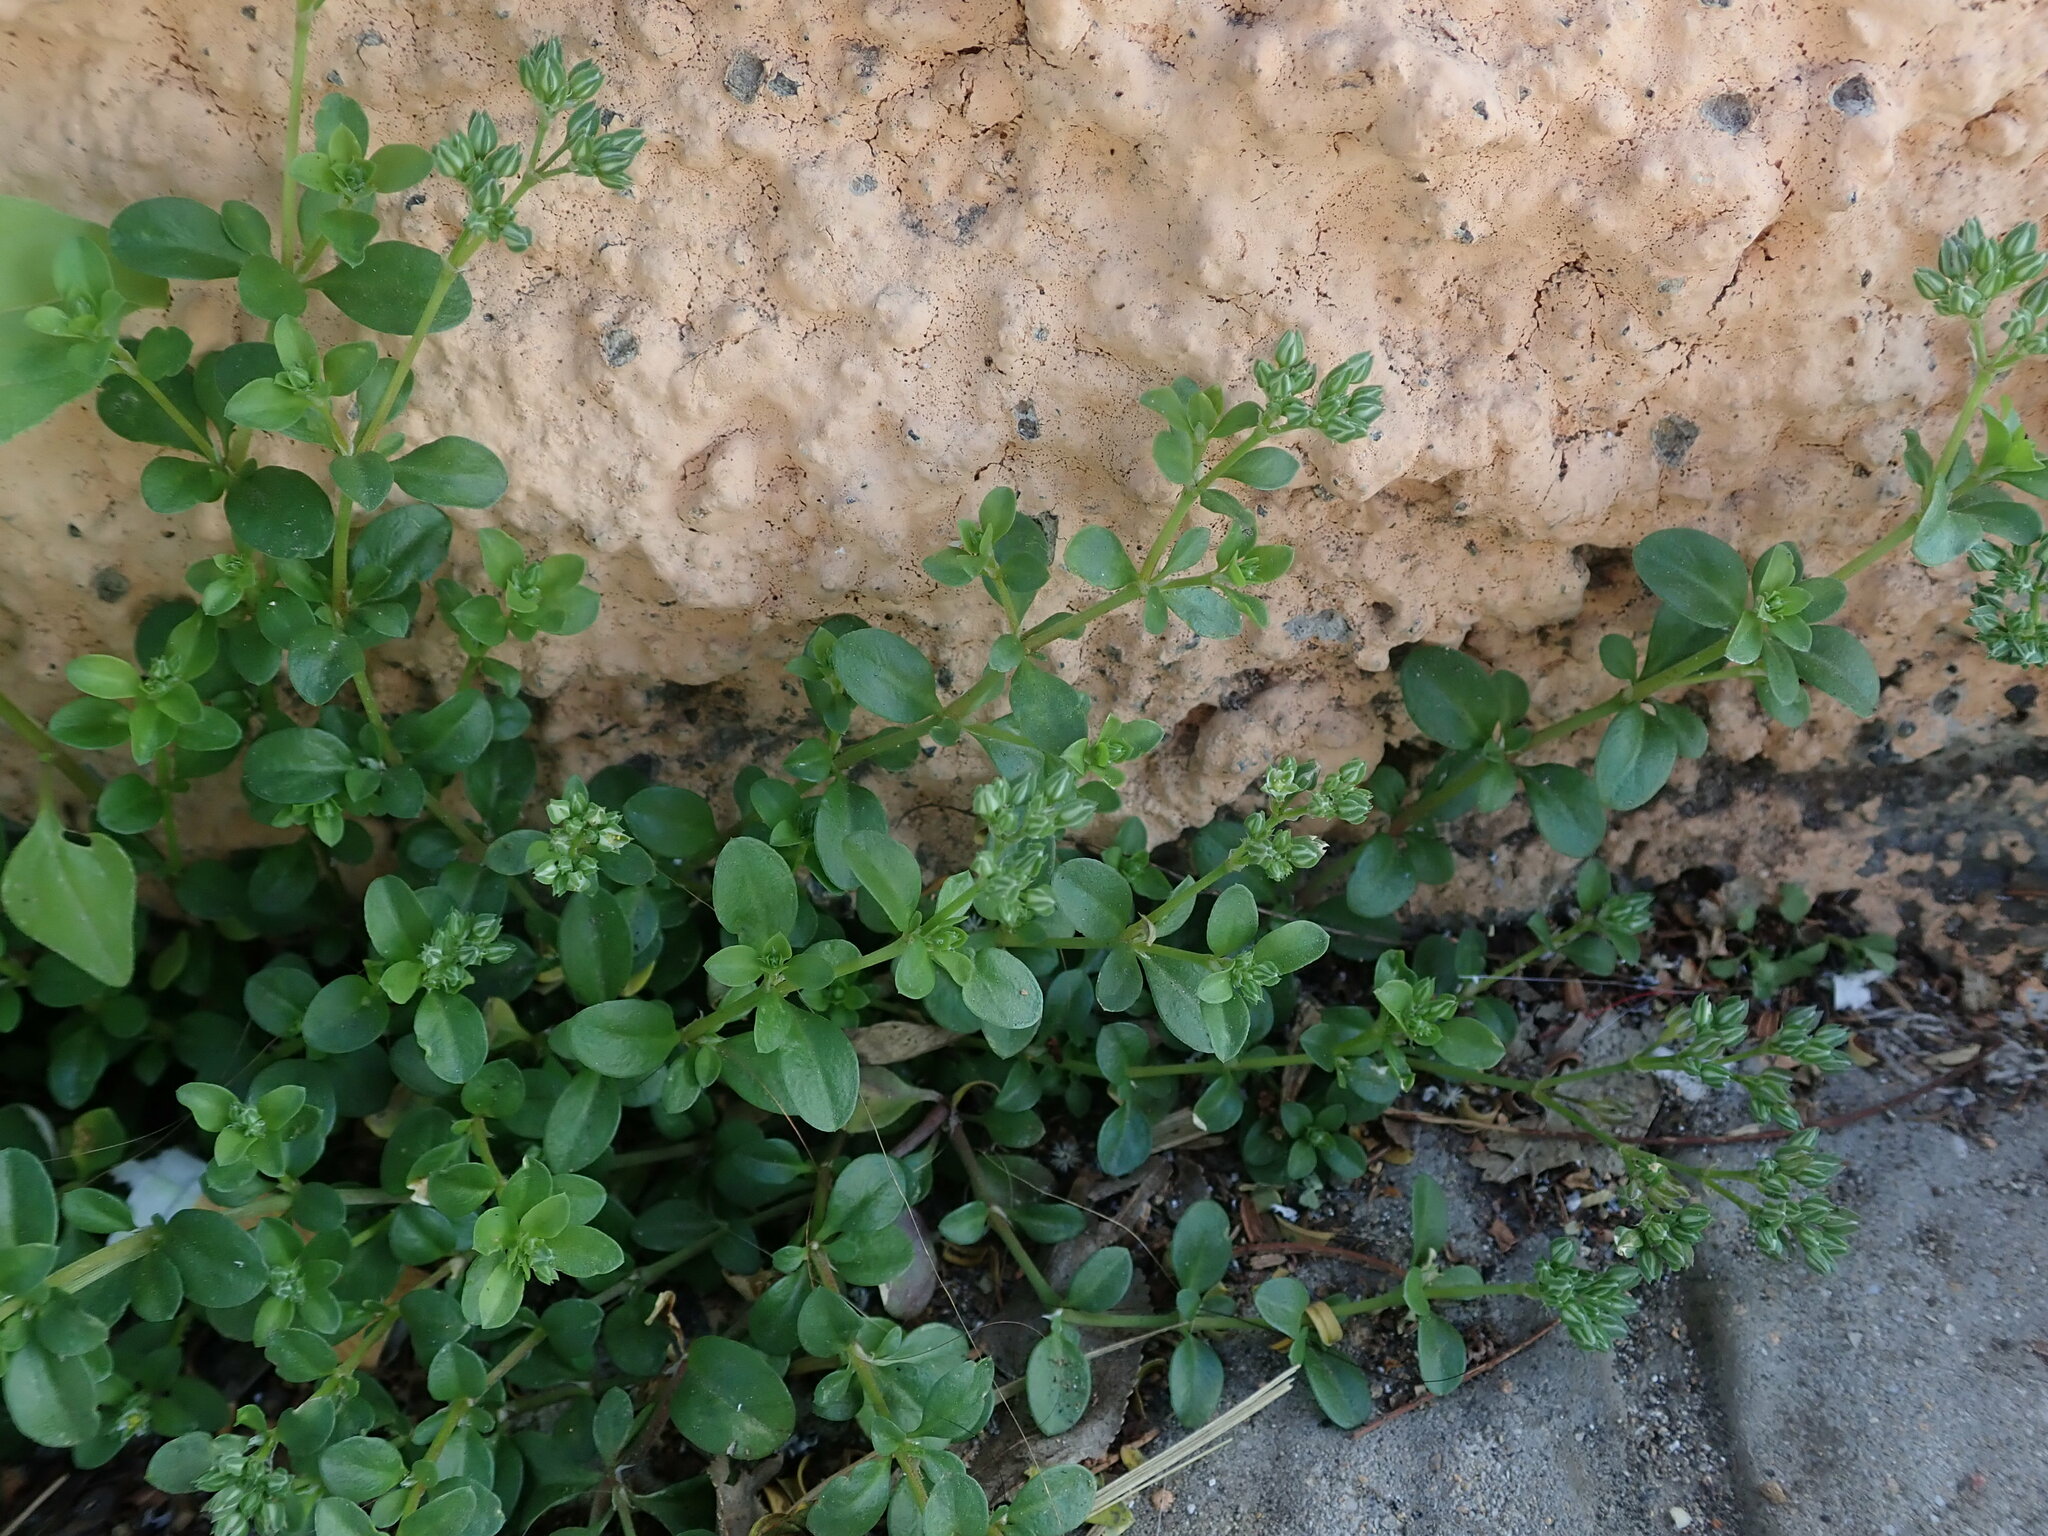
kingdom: Plantae
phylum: Tracheophyta
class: Magnoliopsida
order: Caryophyllales
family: Caryophyllaceae
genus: Polycarpon
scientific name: Polycarpon tetraphyllum
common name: Four-leaved all-seed
